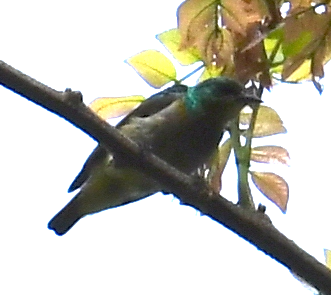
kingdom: Animalia
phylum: Chordata
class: Aves
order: Passeriformes
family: Nectariniidae
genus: Anthreptes
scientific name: Anthreptes rectirostris
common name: Grey-chinned sunbird
